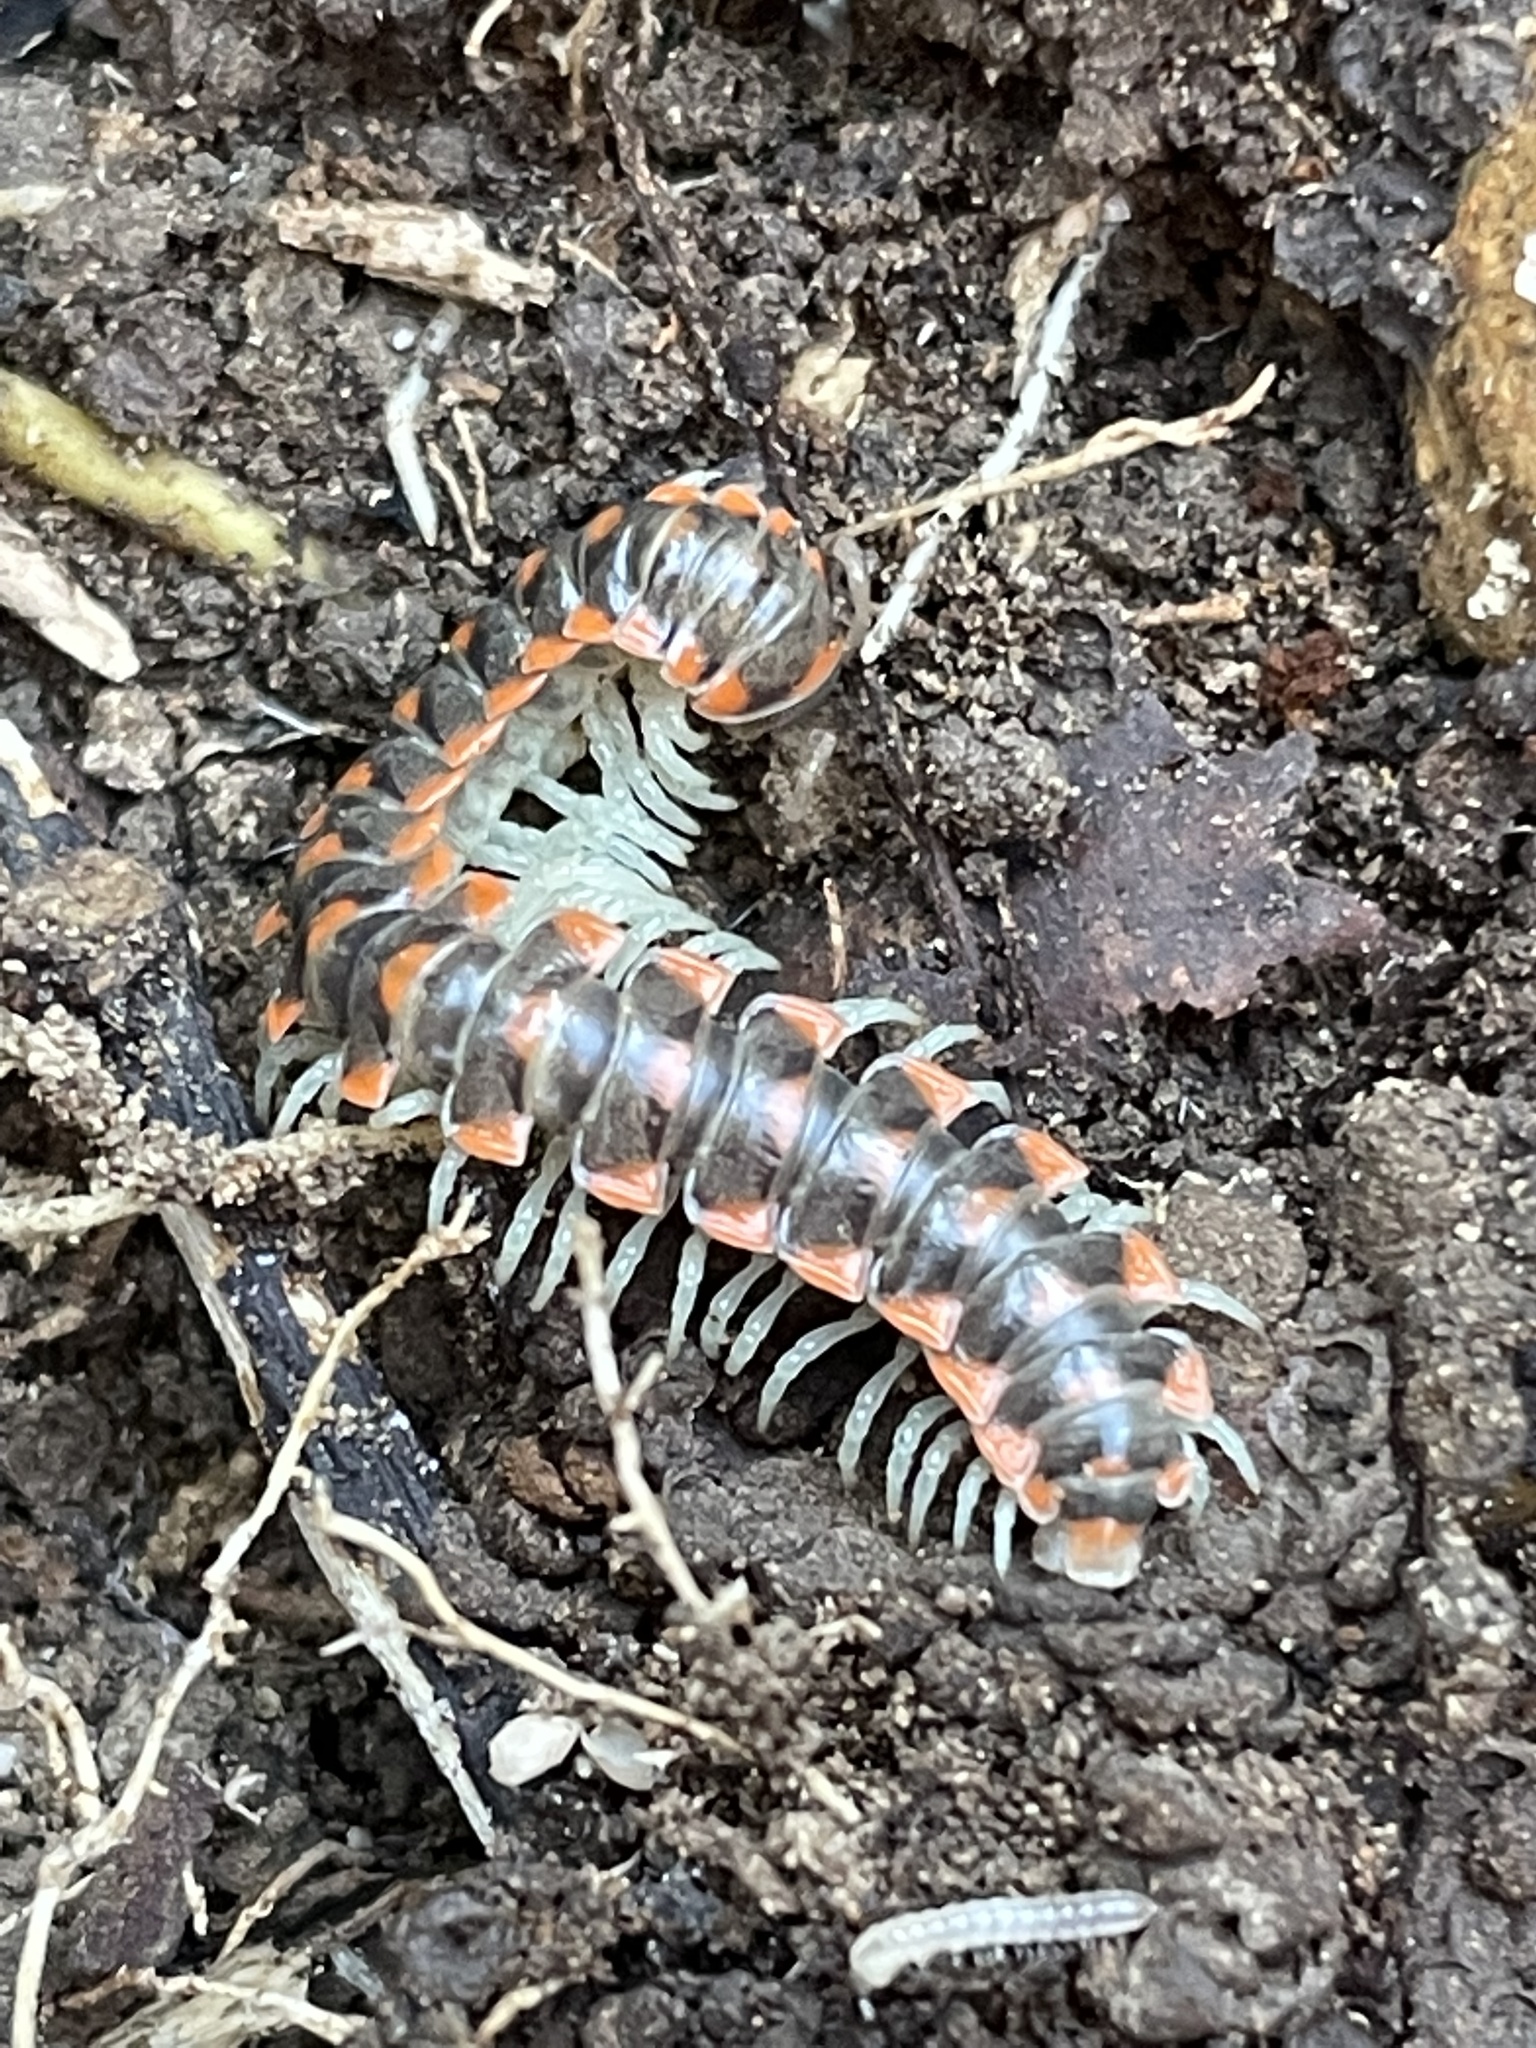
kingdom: Animalia
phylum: Arthropoda
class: Diplopoda
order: Polydesmida
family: Xystodesmidae
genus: Euryurus
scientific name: Euryurus leachii
